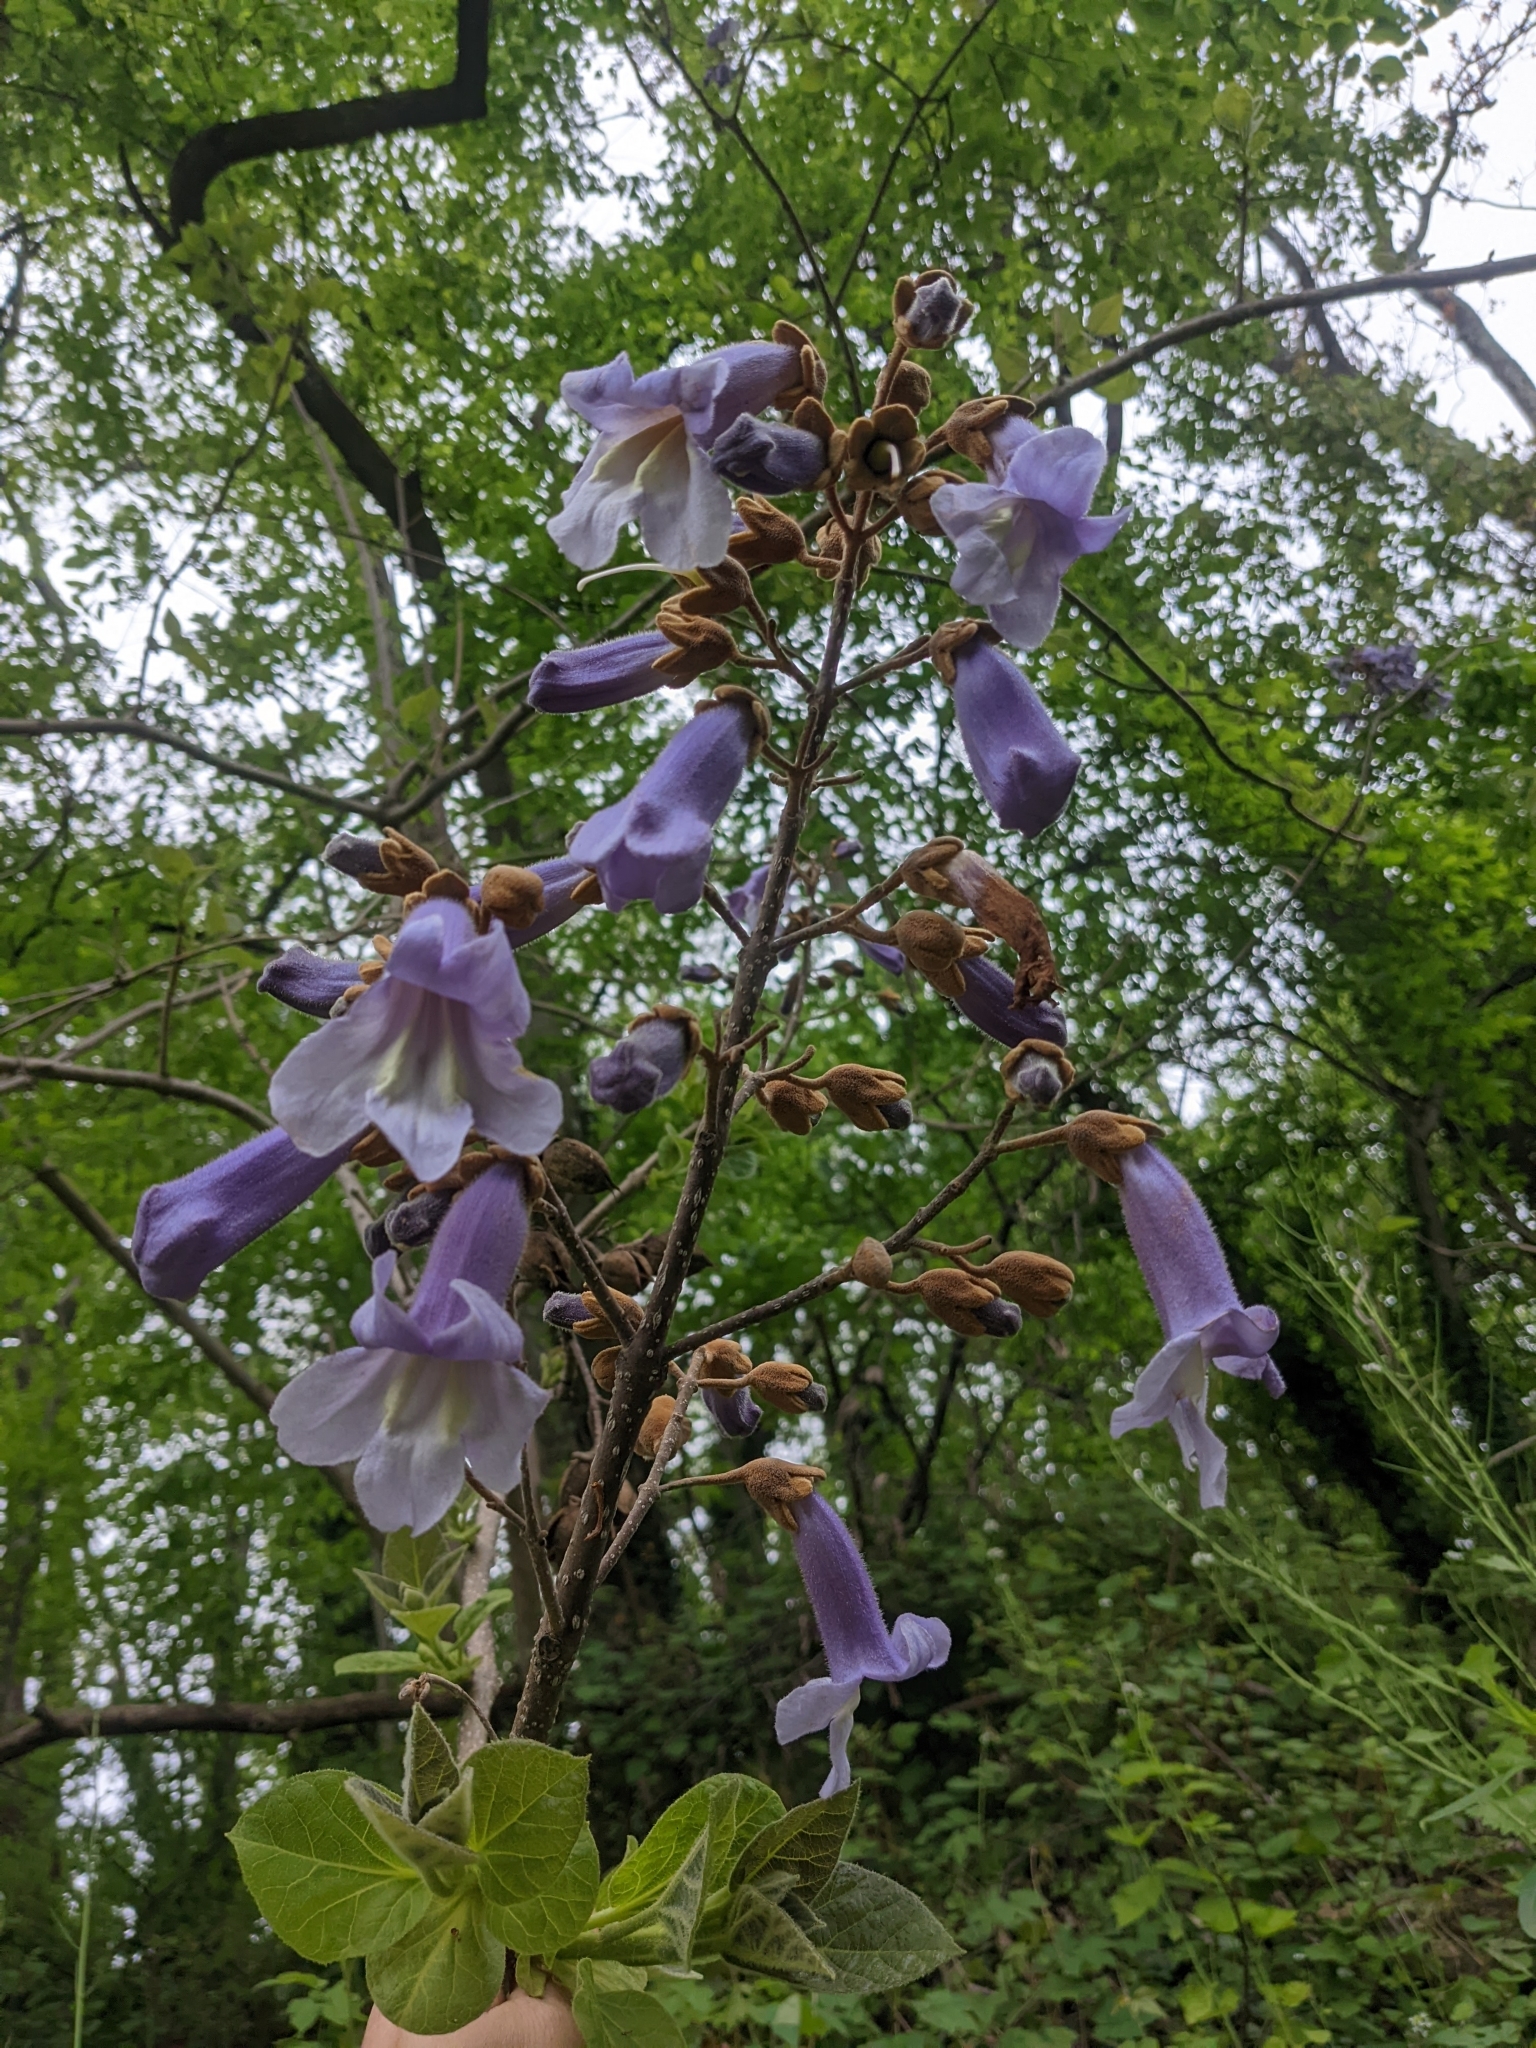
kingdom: Plantae
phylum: Tracheophyta
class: Magnoliopsida
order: Lamiales
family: Paulowniaceae
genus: Paulownia
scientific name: Paulownia tomentosa
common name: Foxglove-tree
